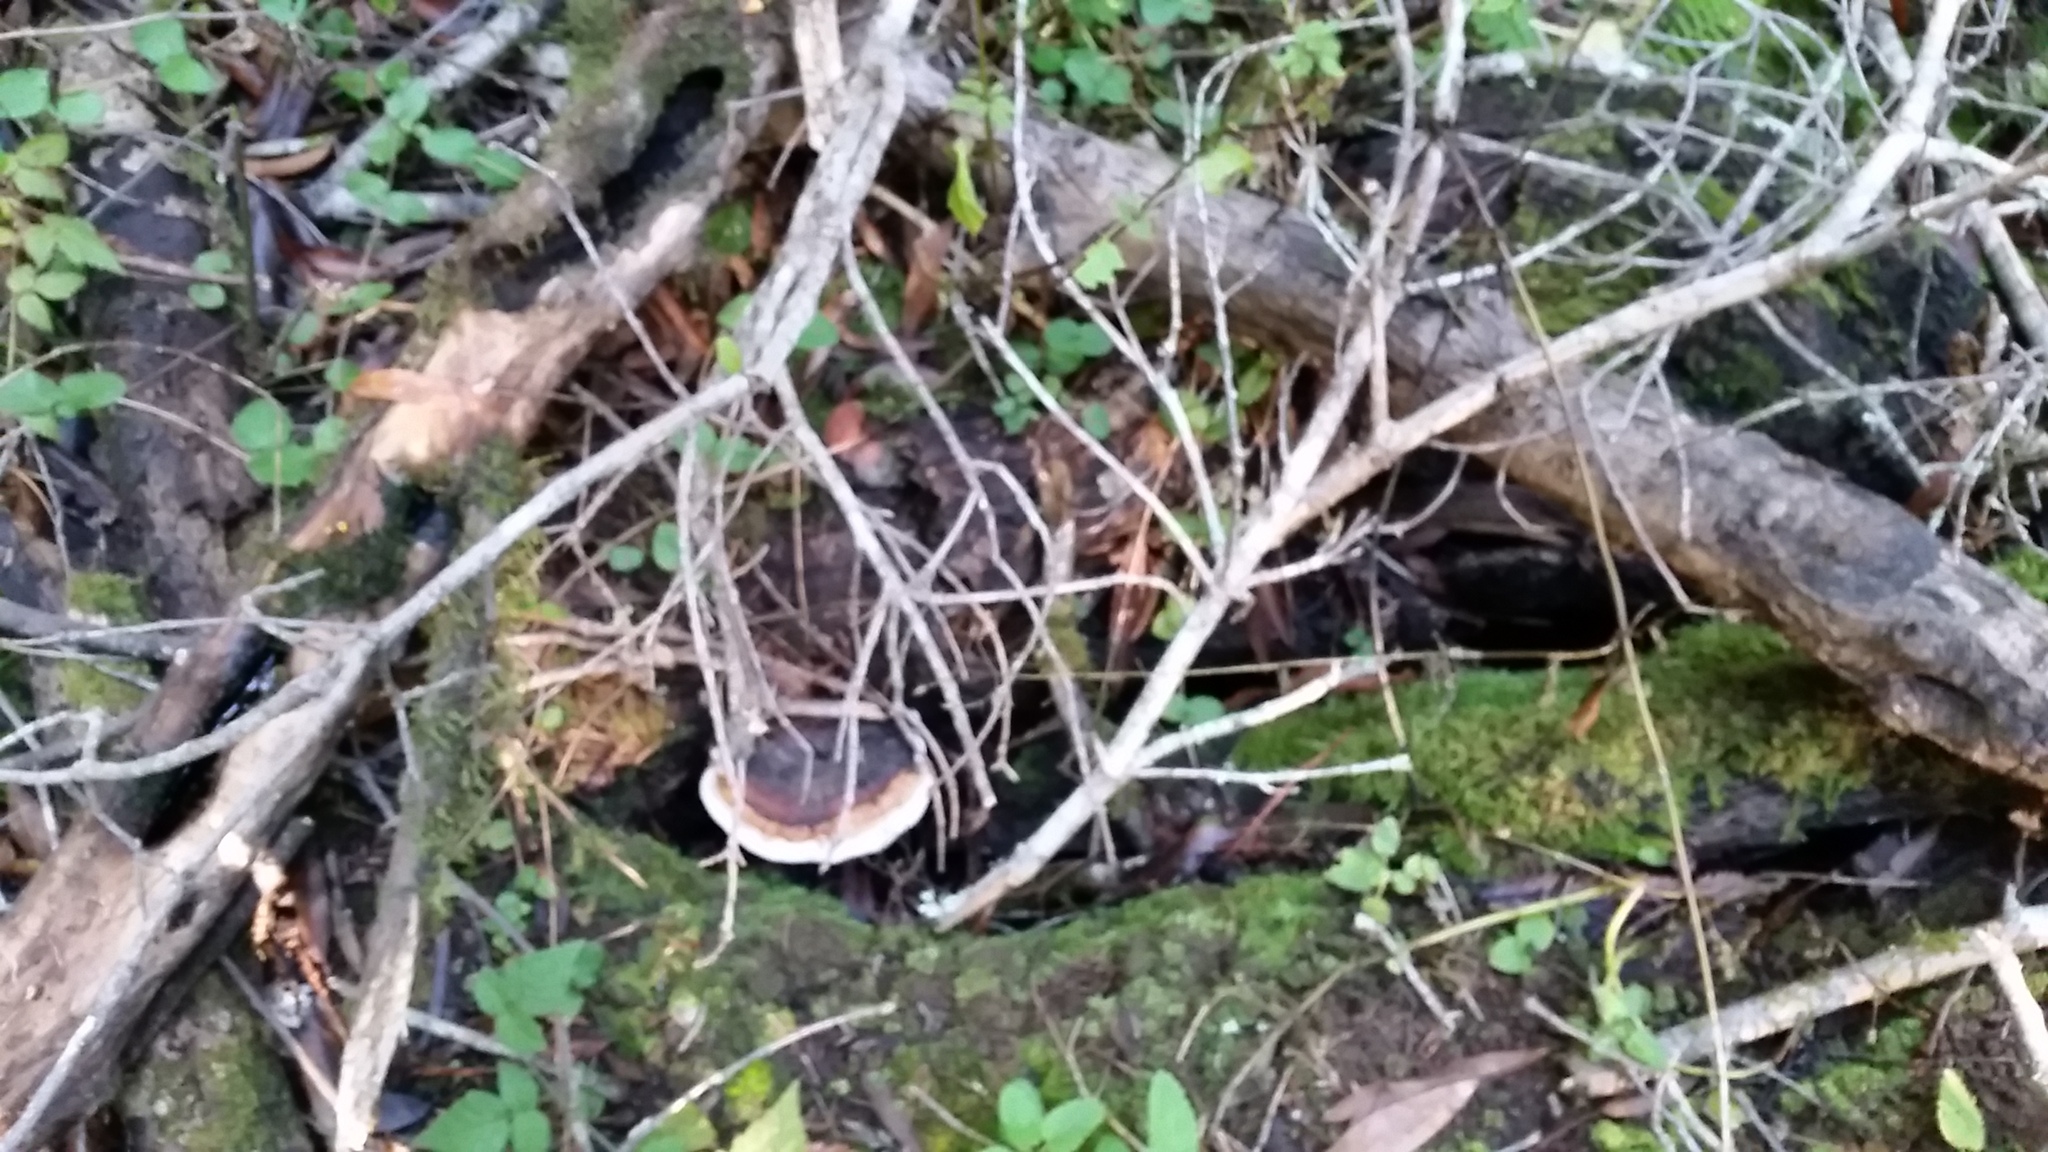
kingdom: Fungi
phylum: Basidiomycota
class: Agaricomycetes
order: Polyporales
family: Fomitopsidaceae
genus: Fomitopsis
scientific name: Fomitopsis mounceae
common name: Northern red belt
